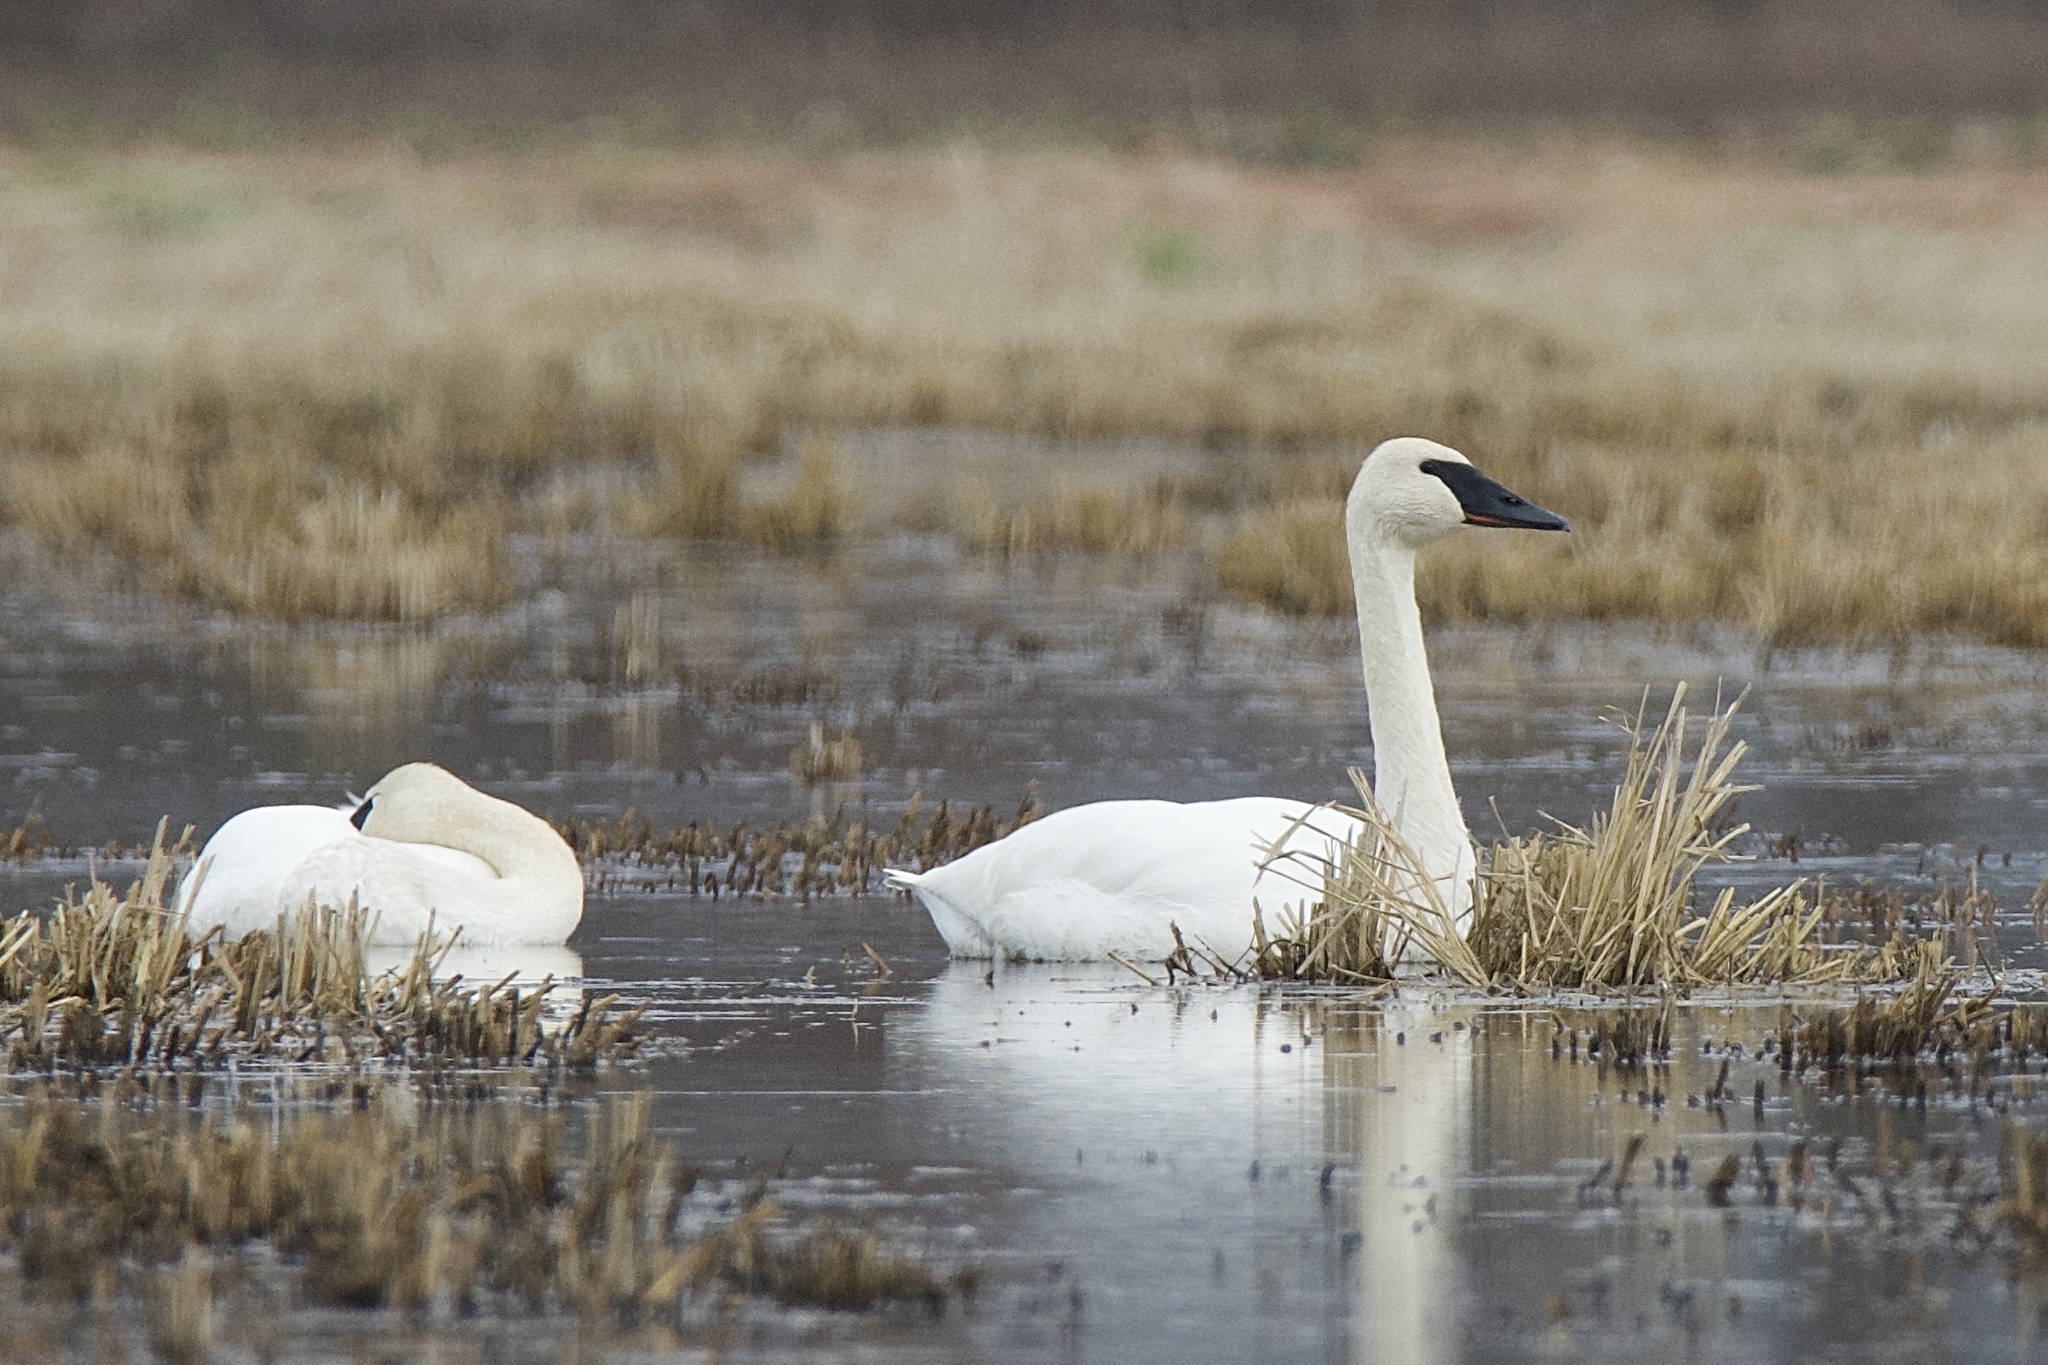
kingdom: Animalia
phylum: Chordata
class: Aves
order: Anseriformes
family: Anatidae
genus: Cygnus
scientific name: Cygnus buccinator
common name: Trumpeter swan
